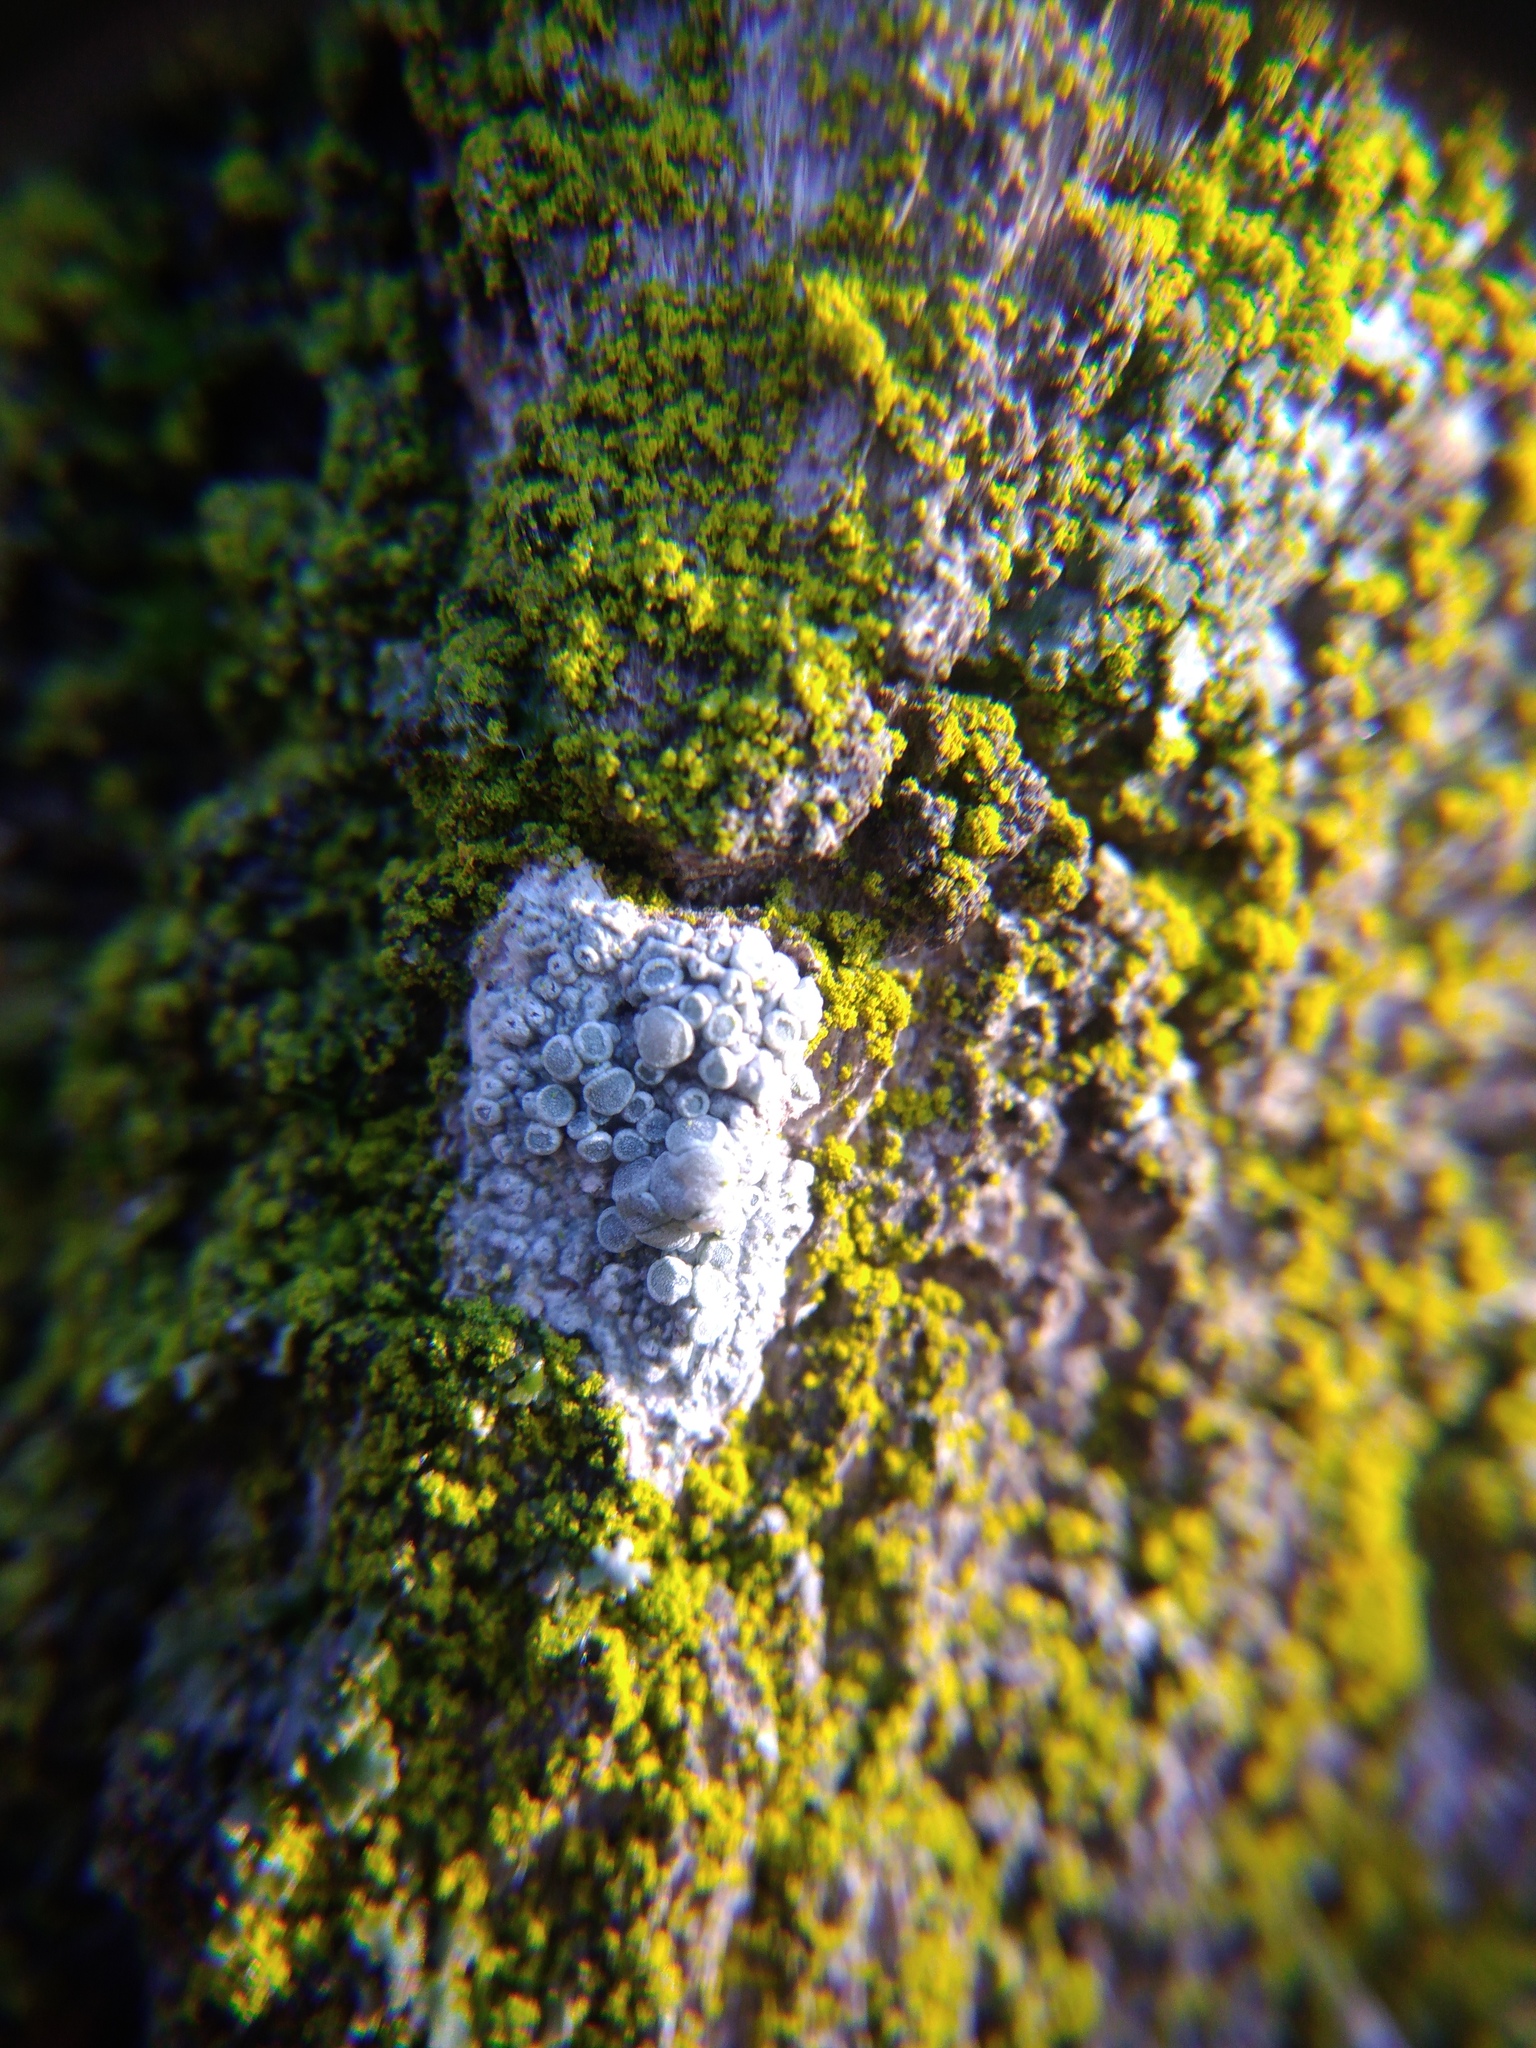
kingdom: Fungi
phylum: Ascomycota
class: Lecanoromycetes
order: Lecanorales
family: Lecanoraceae
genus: Glaucomaria
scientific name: Glaucomaria carpinea
